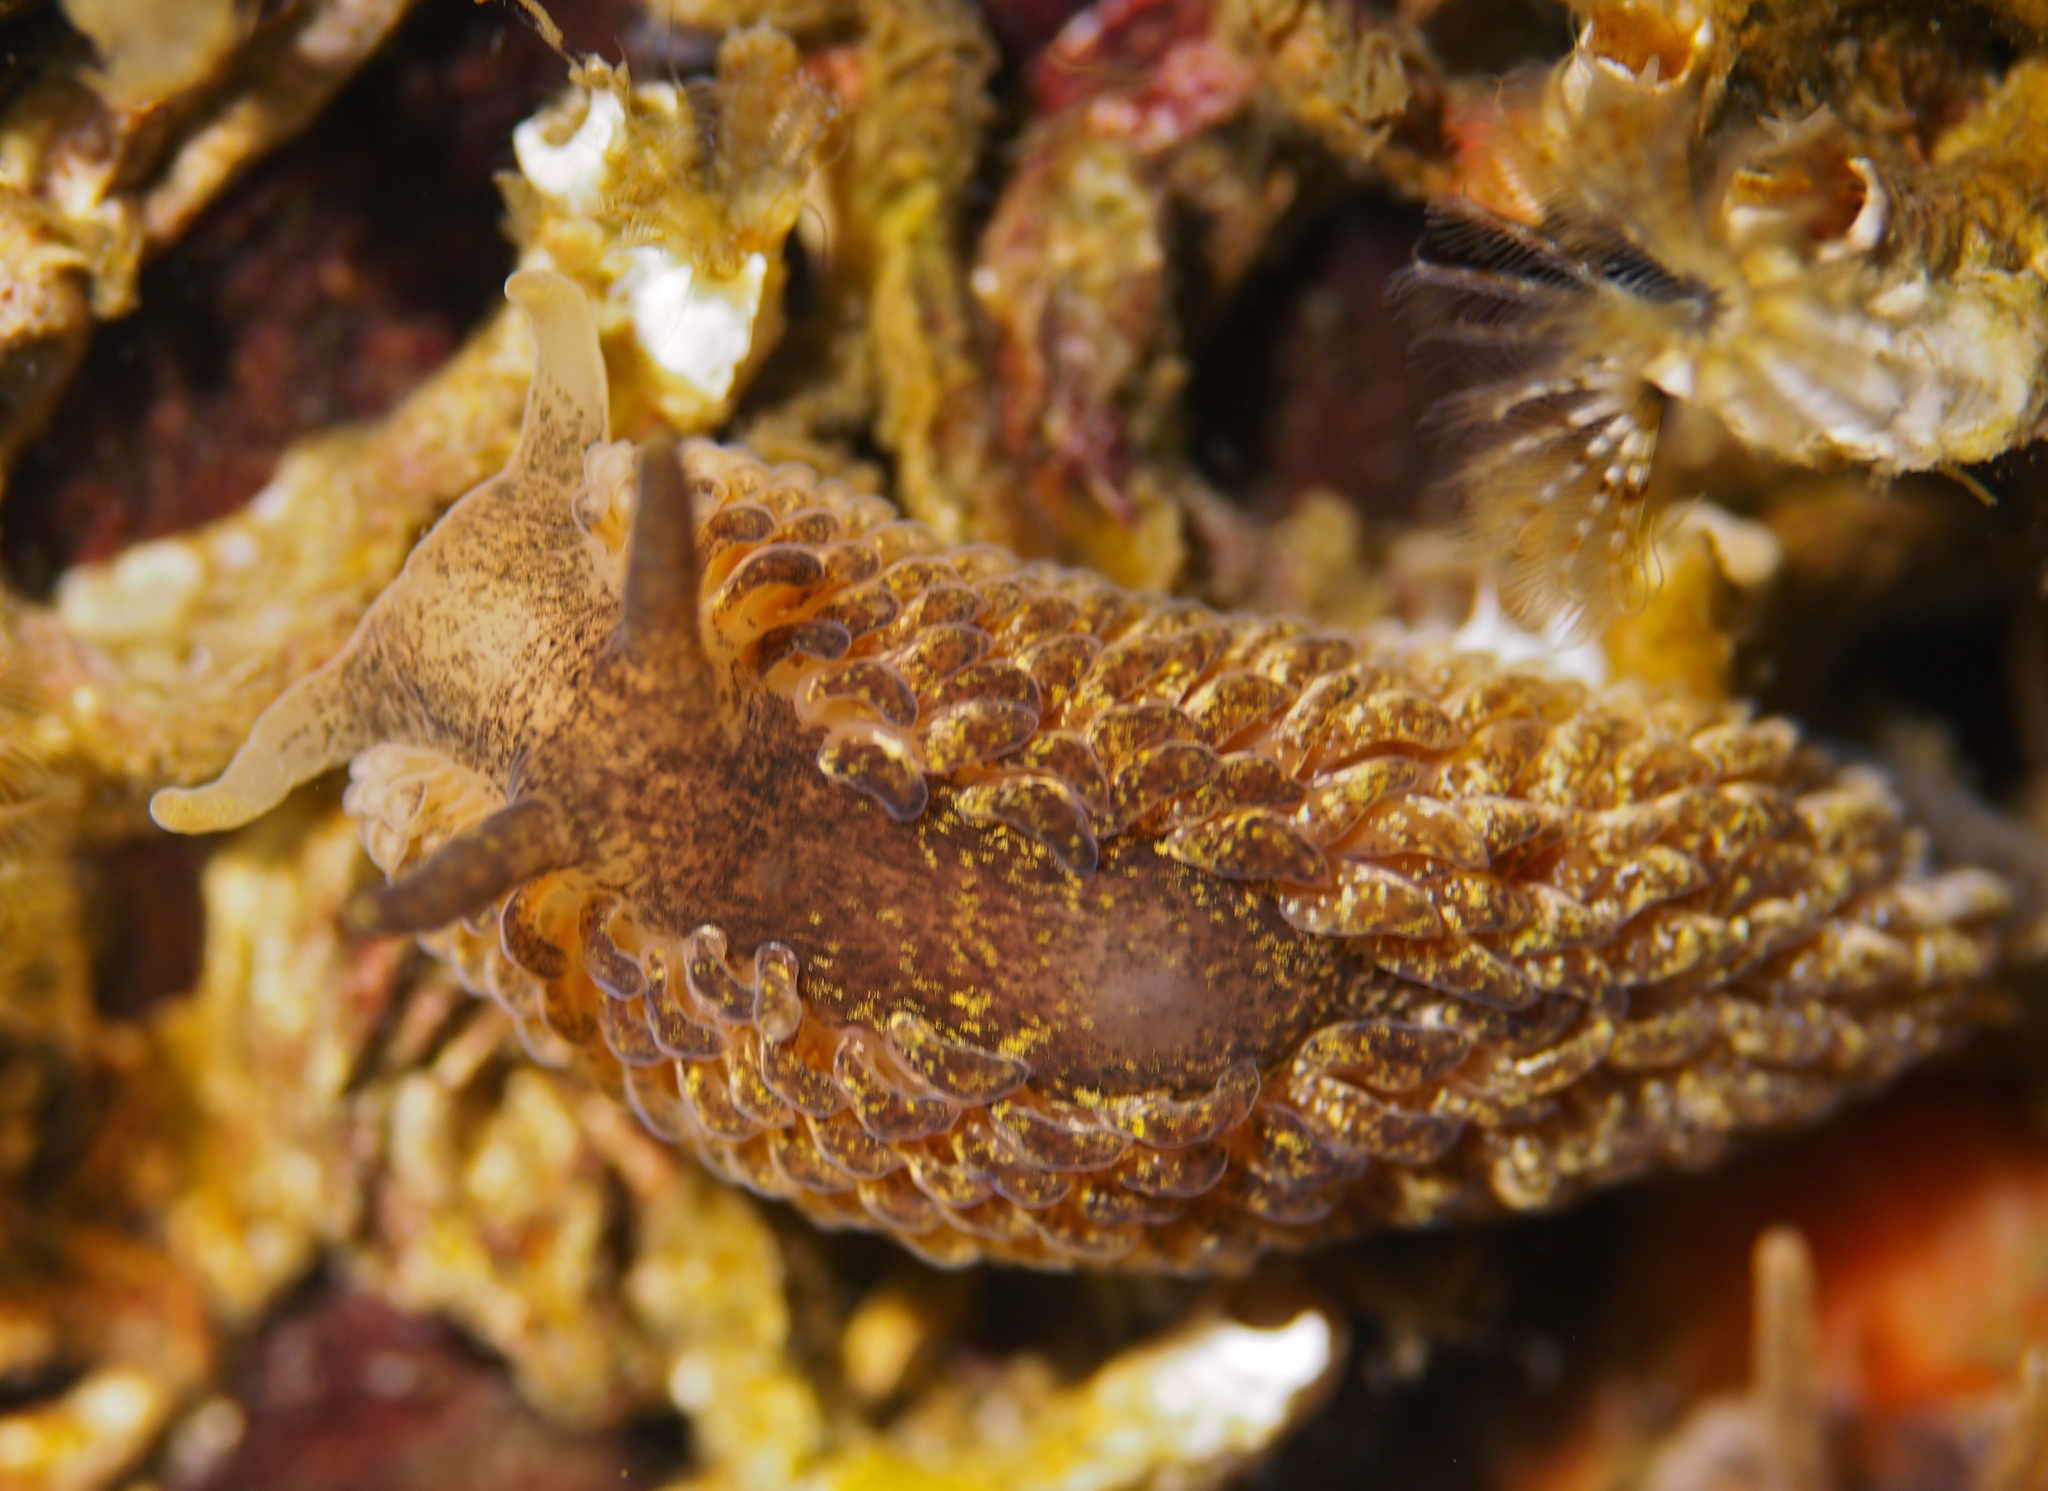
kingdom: Animalia
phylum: Mollusca
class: Gastropoda
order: Nudibranchia
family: Aeolidiidae
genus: Aeolidia
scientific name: Aeolidia papillosa
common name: Common grey sea slug
